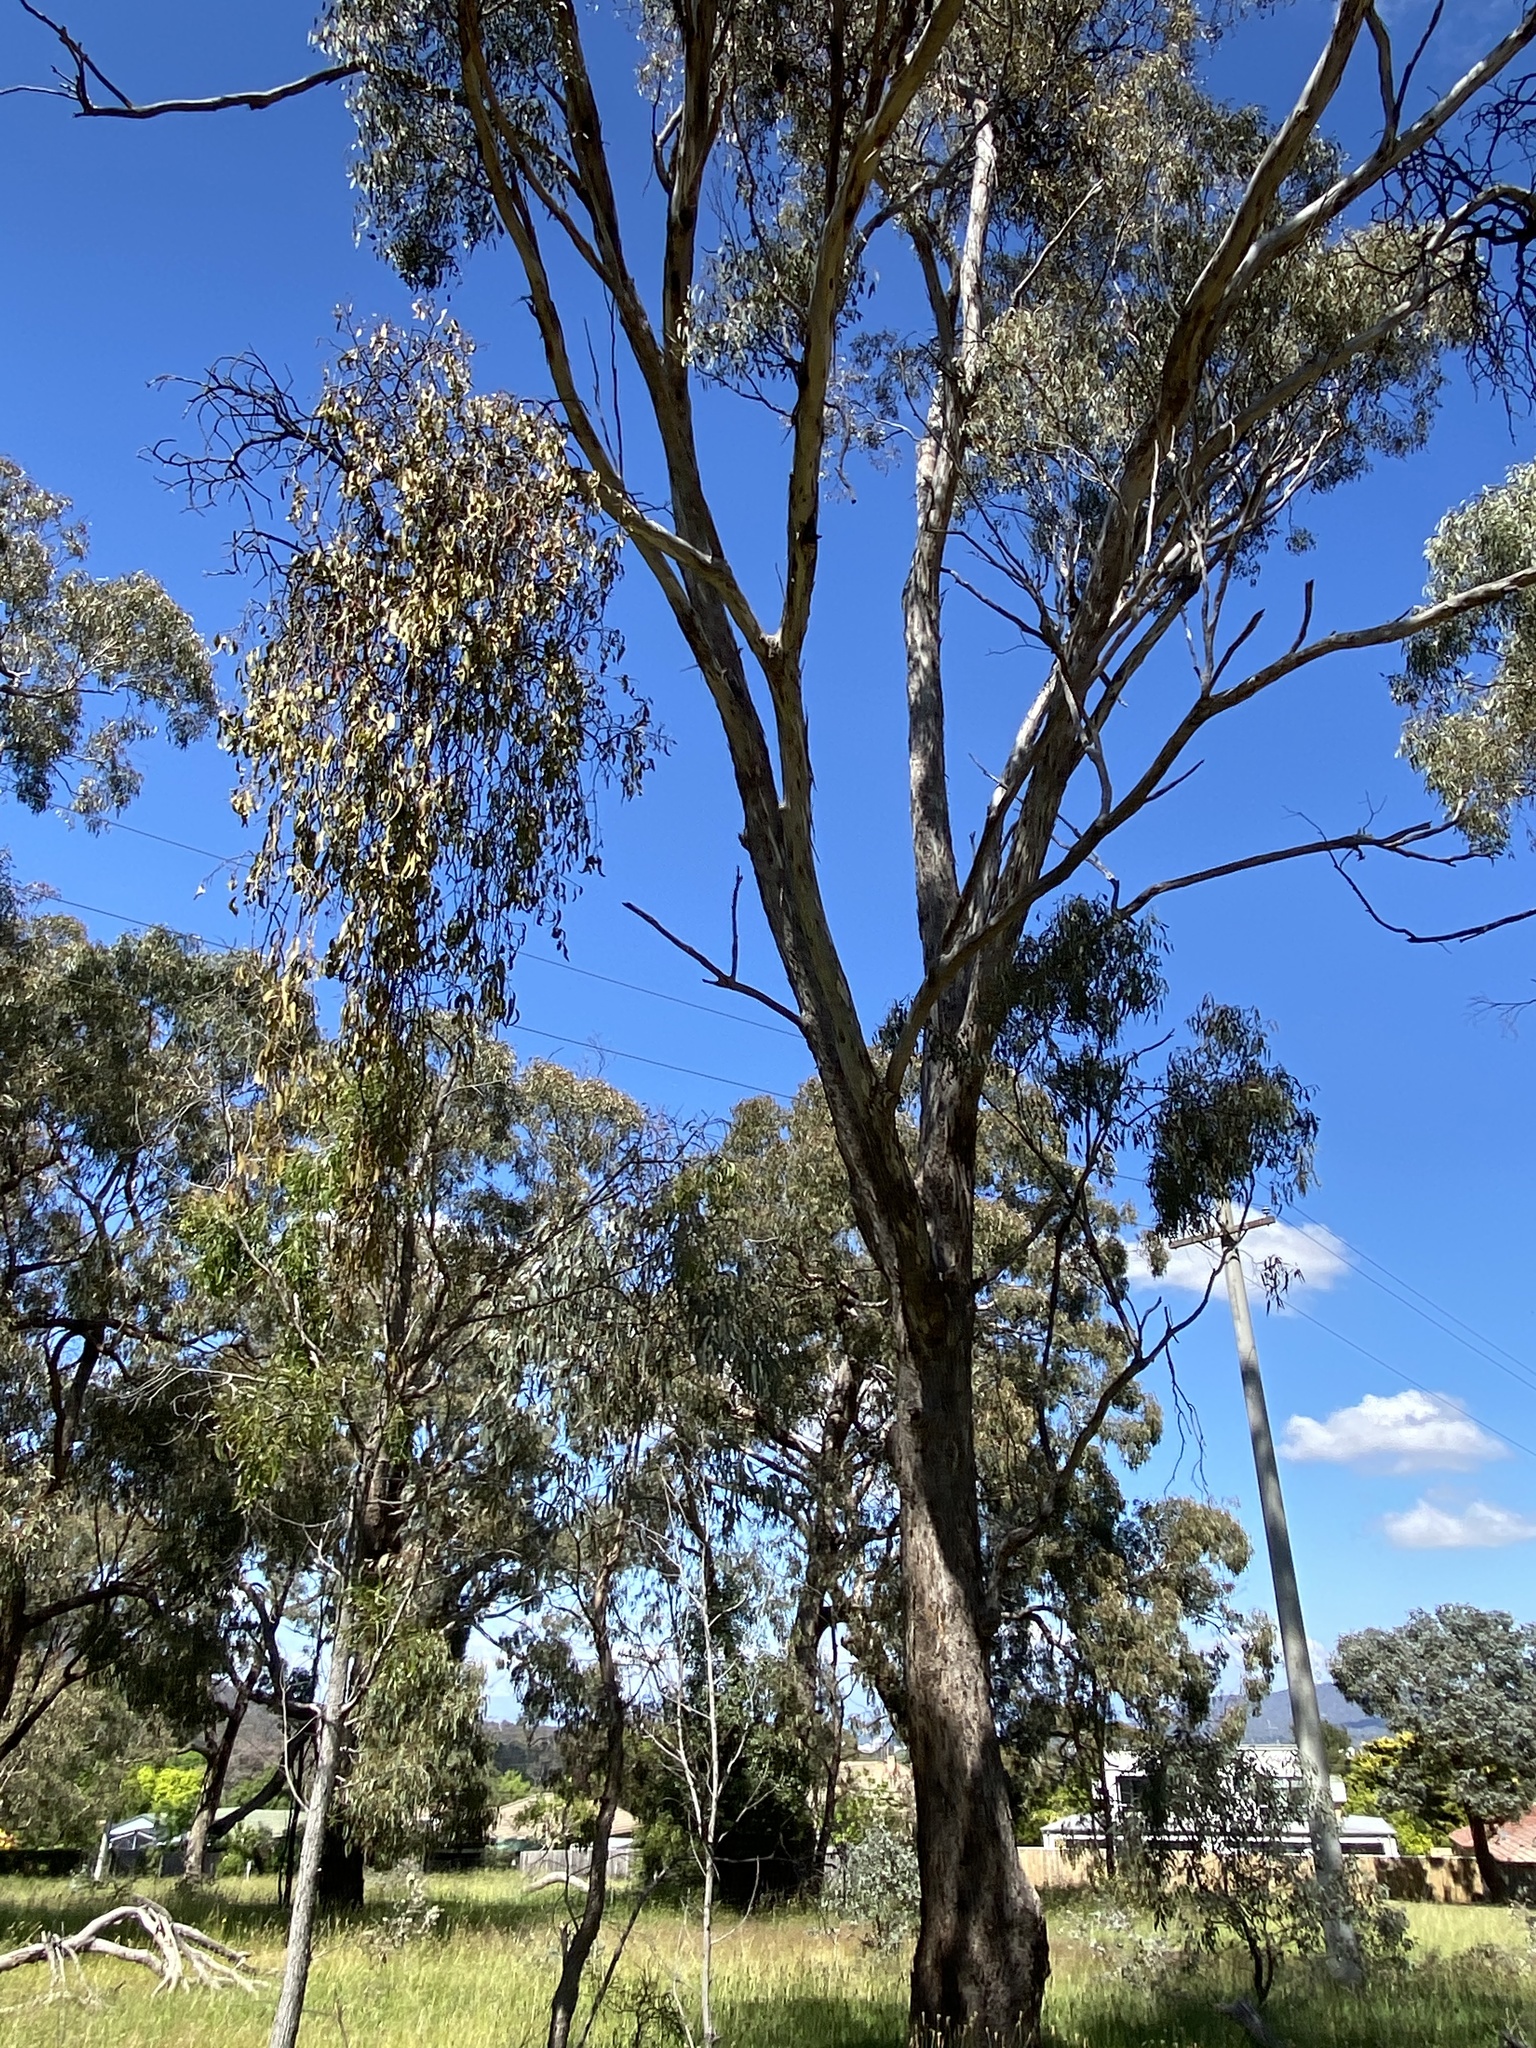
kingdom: Plantae
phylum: Tracheophyta
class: Magnoliopsida
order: Santalales
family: Loranthaceae
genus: Amyema
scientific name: Amyema miquelii
